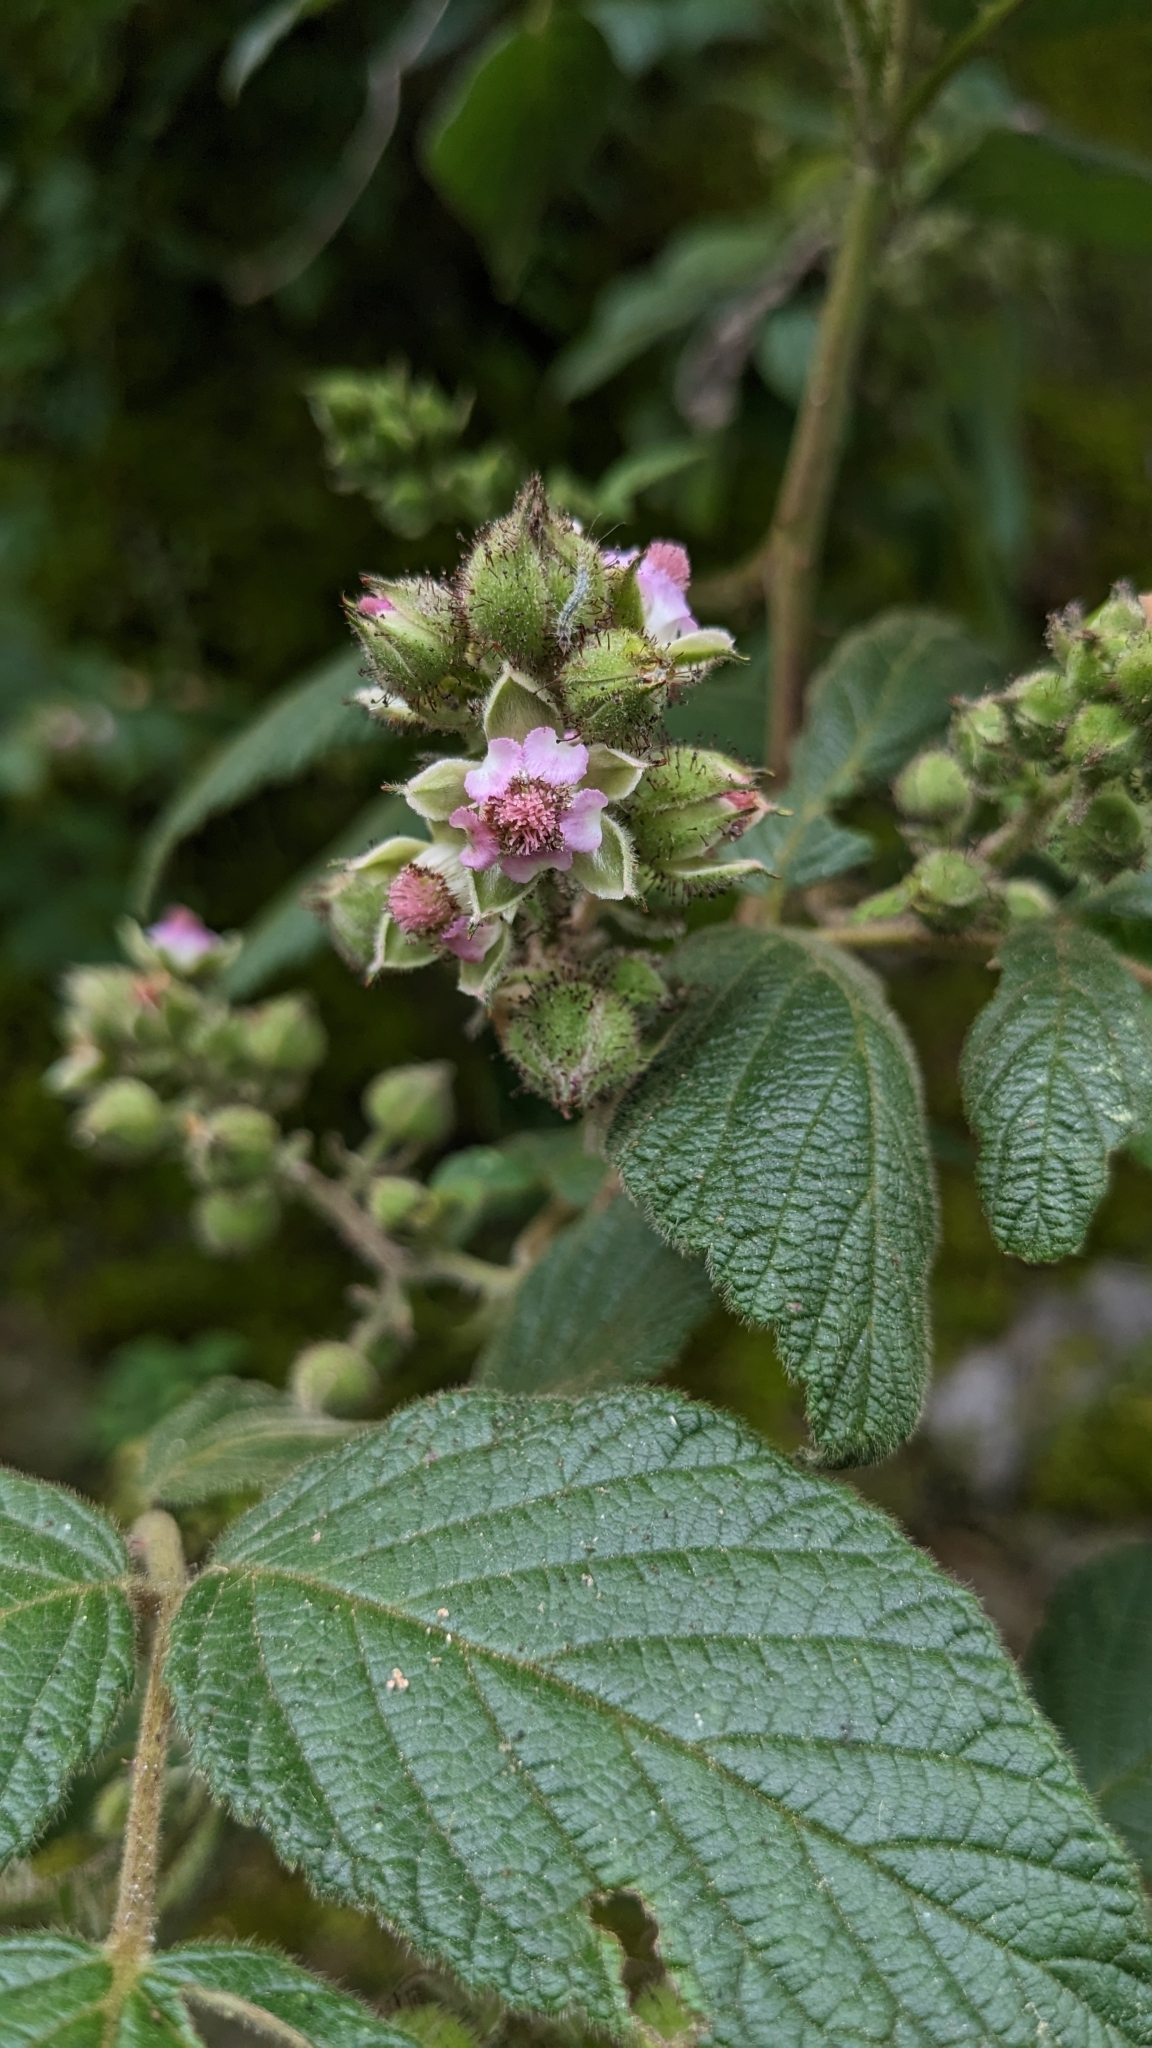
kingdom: Plantae
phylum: Tracheophyta
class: Magnoliopsida
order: Rosales
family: Rosaceae
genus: Rubus
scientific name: Rubus parviaraliifolius
